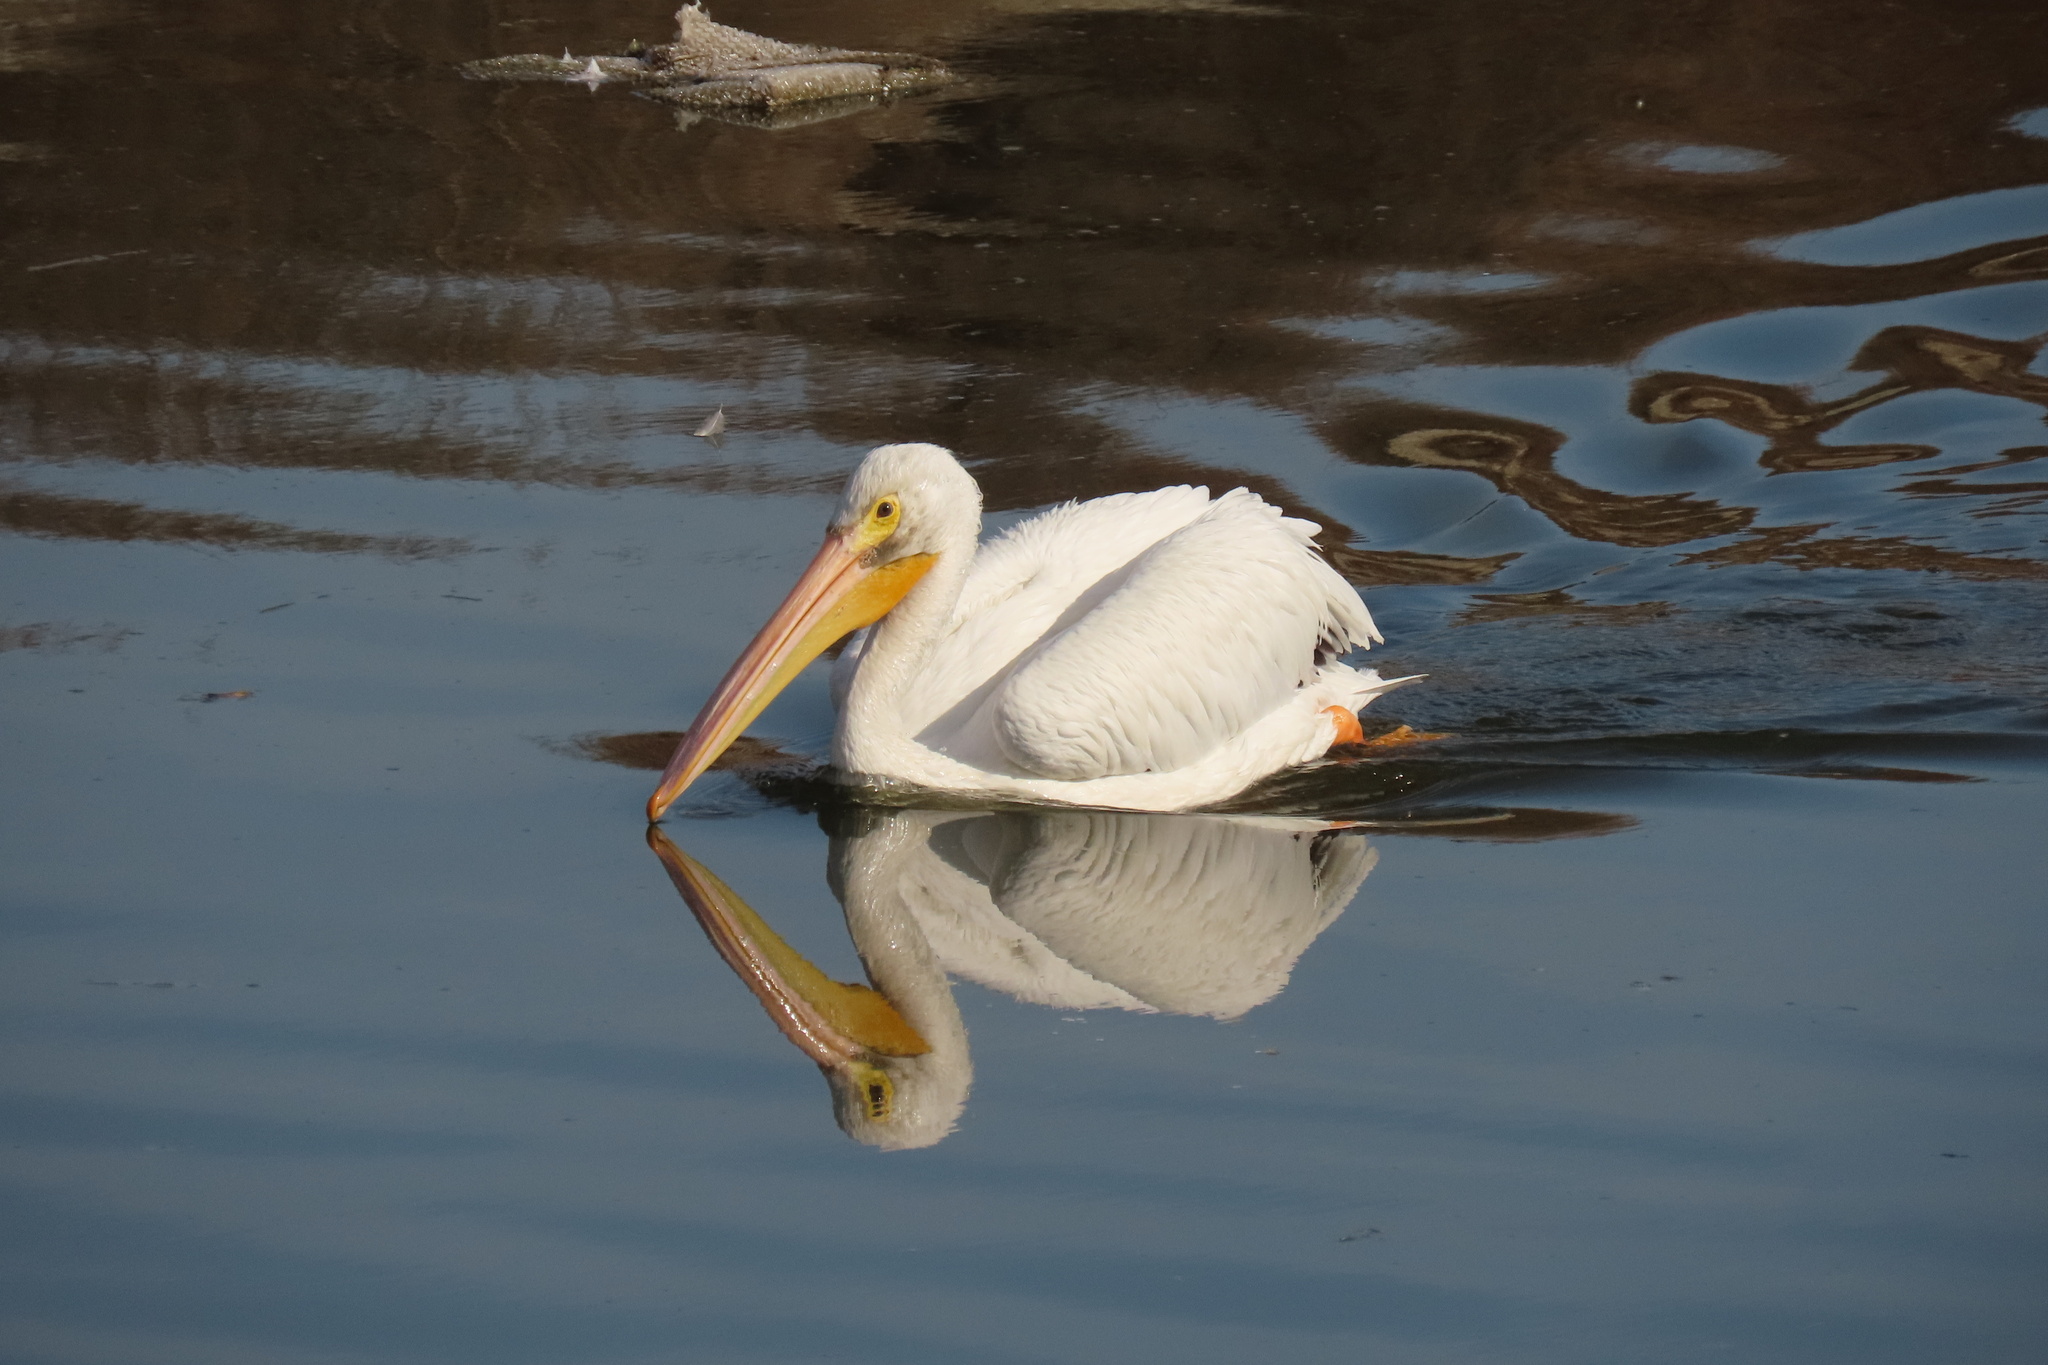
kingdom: Animalia
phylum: Chordata
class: Aves
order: Pelecaniformes
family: Pelecanidae
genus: Pelecanus
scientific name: Pelecanus erythrorhynchos
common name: American white pelican
